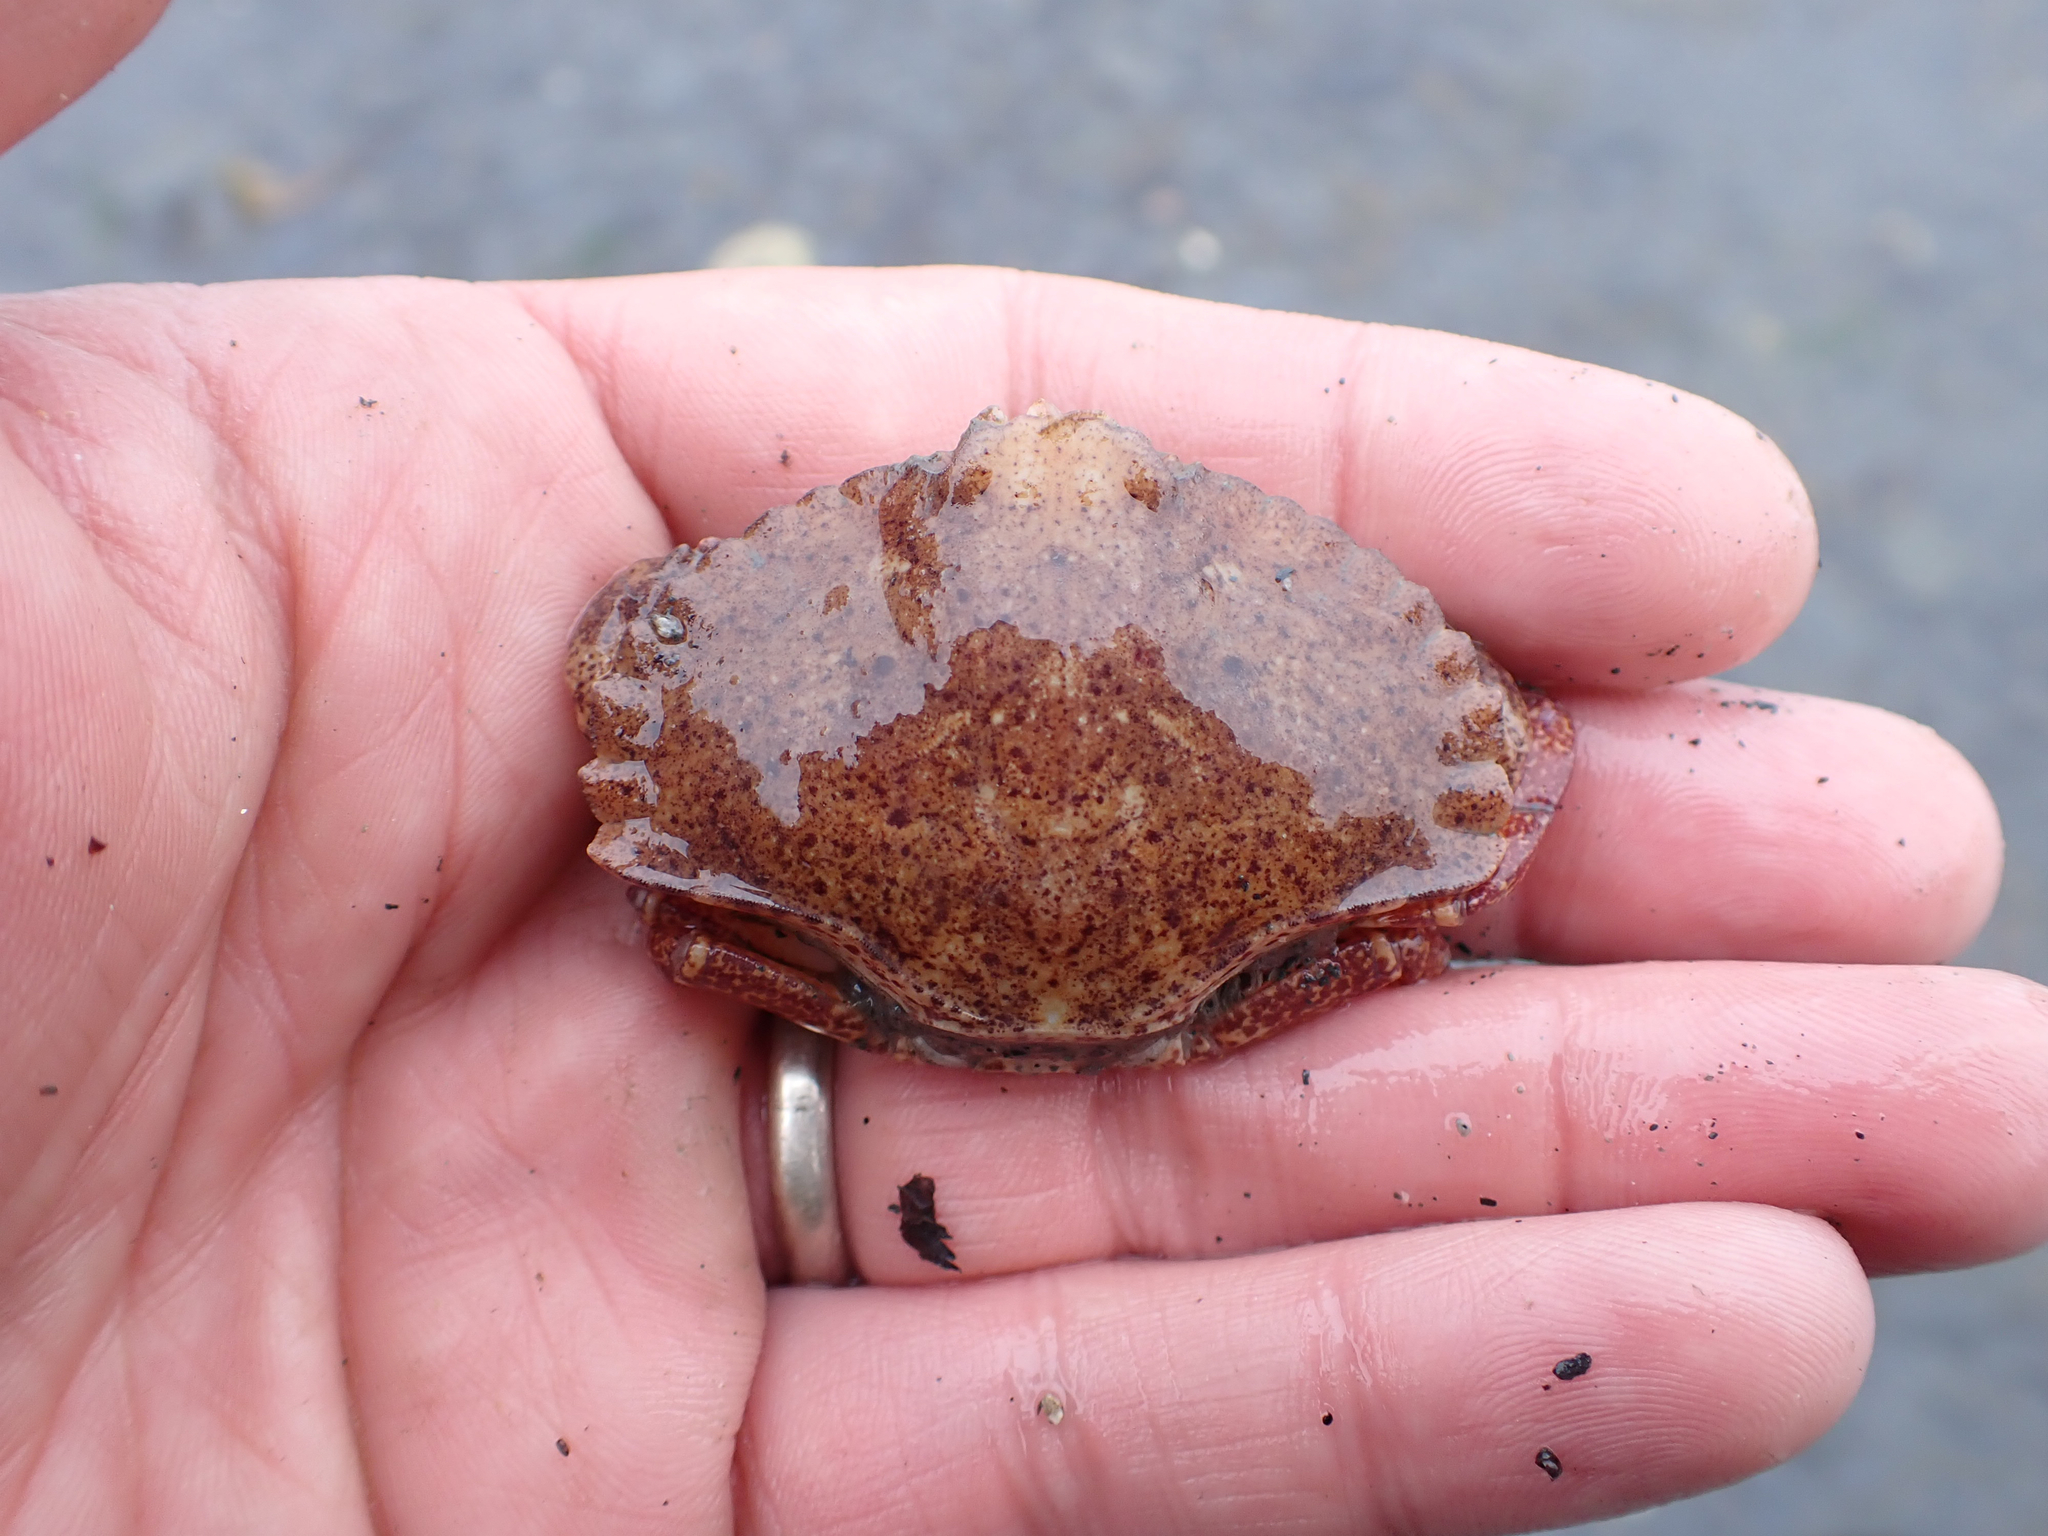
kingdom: Animalia
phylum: Arthropoda
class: Malacostraca
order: Decapoda
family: Cancridae
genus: Cancer
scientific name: Cancer productus
